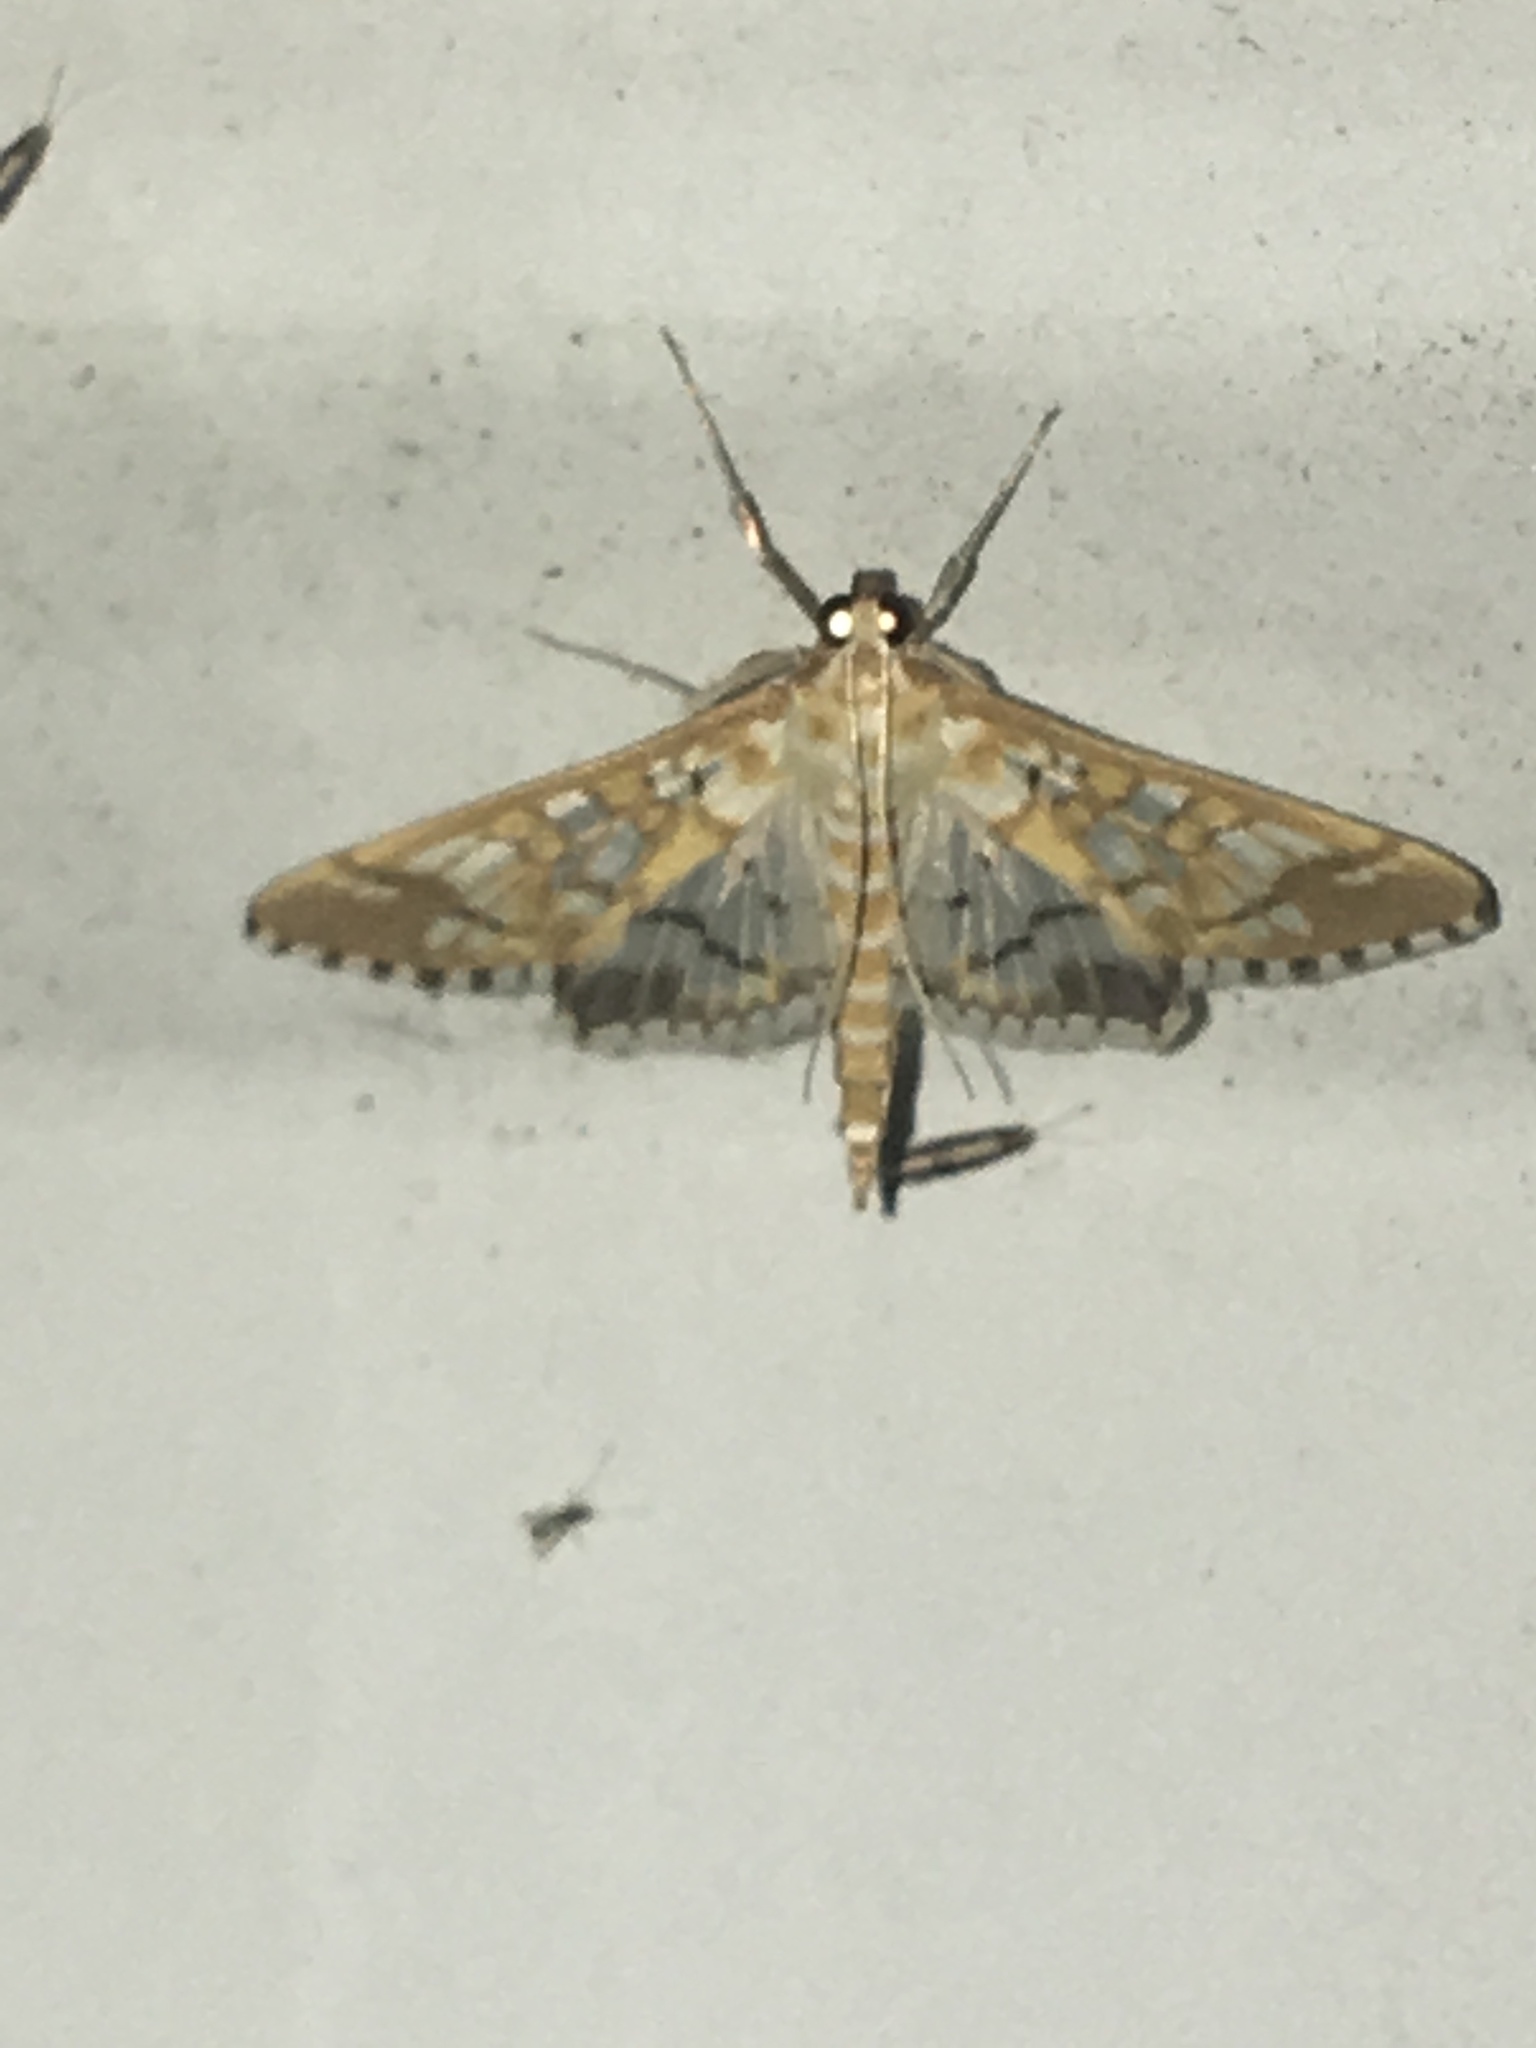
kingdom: Animalia
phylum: Arthropoda
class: Insecta
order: Lepidoptera
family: Crambidae
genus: Epipagis
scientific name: Epipagis fenestralis
